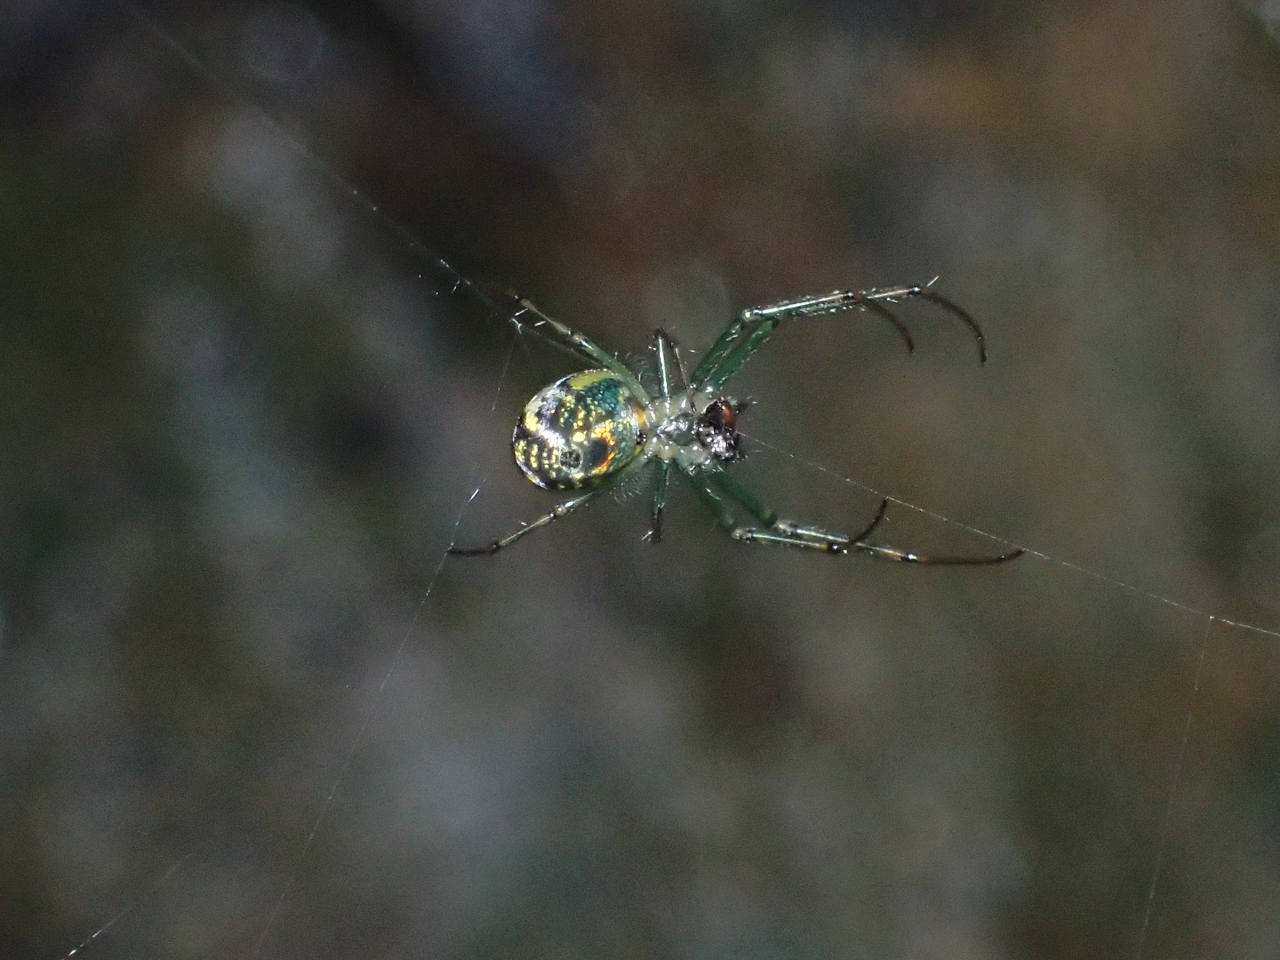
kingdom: Animalia
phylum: Arthropoda
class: Arachnida
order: Araneae
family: Tetragnathidae
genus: Leucauge
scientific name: Leucauge venusta
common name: Longjawed orb weavers
